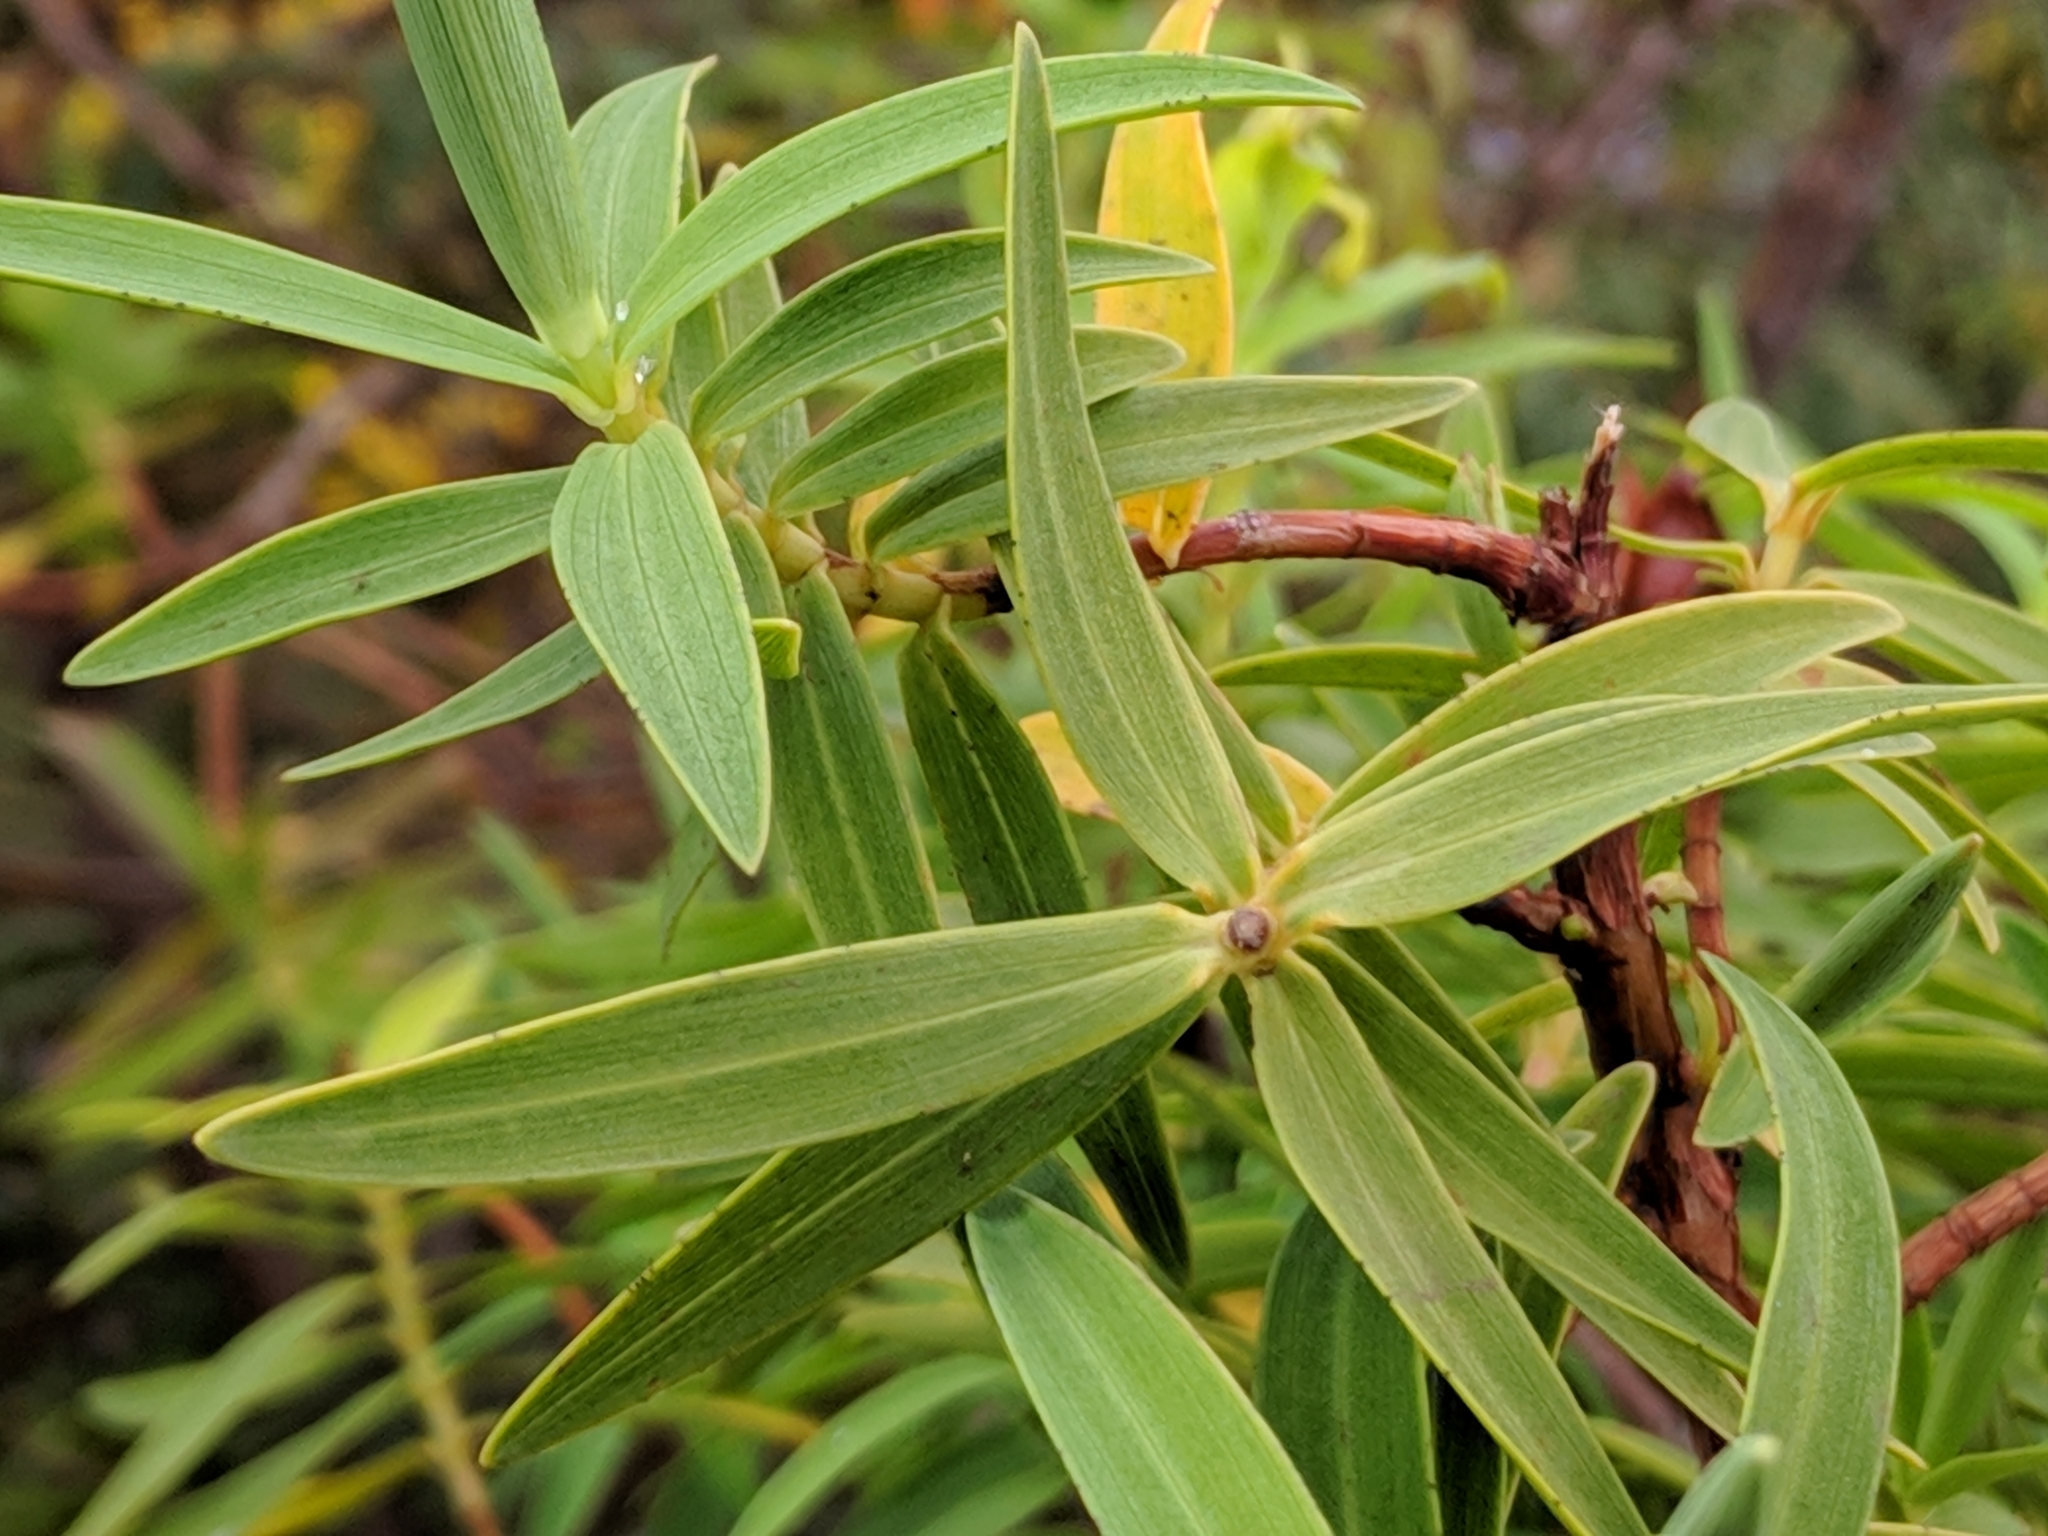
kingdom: Plantae
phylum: Tracheophyta
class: Magnoliopsida
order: Malpighiales
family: Hypericaceae
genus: Hypericum
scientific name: Hypericum lanceolatum
